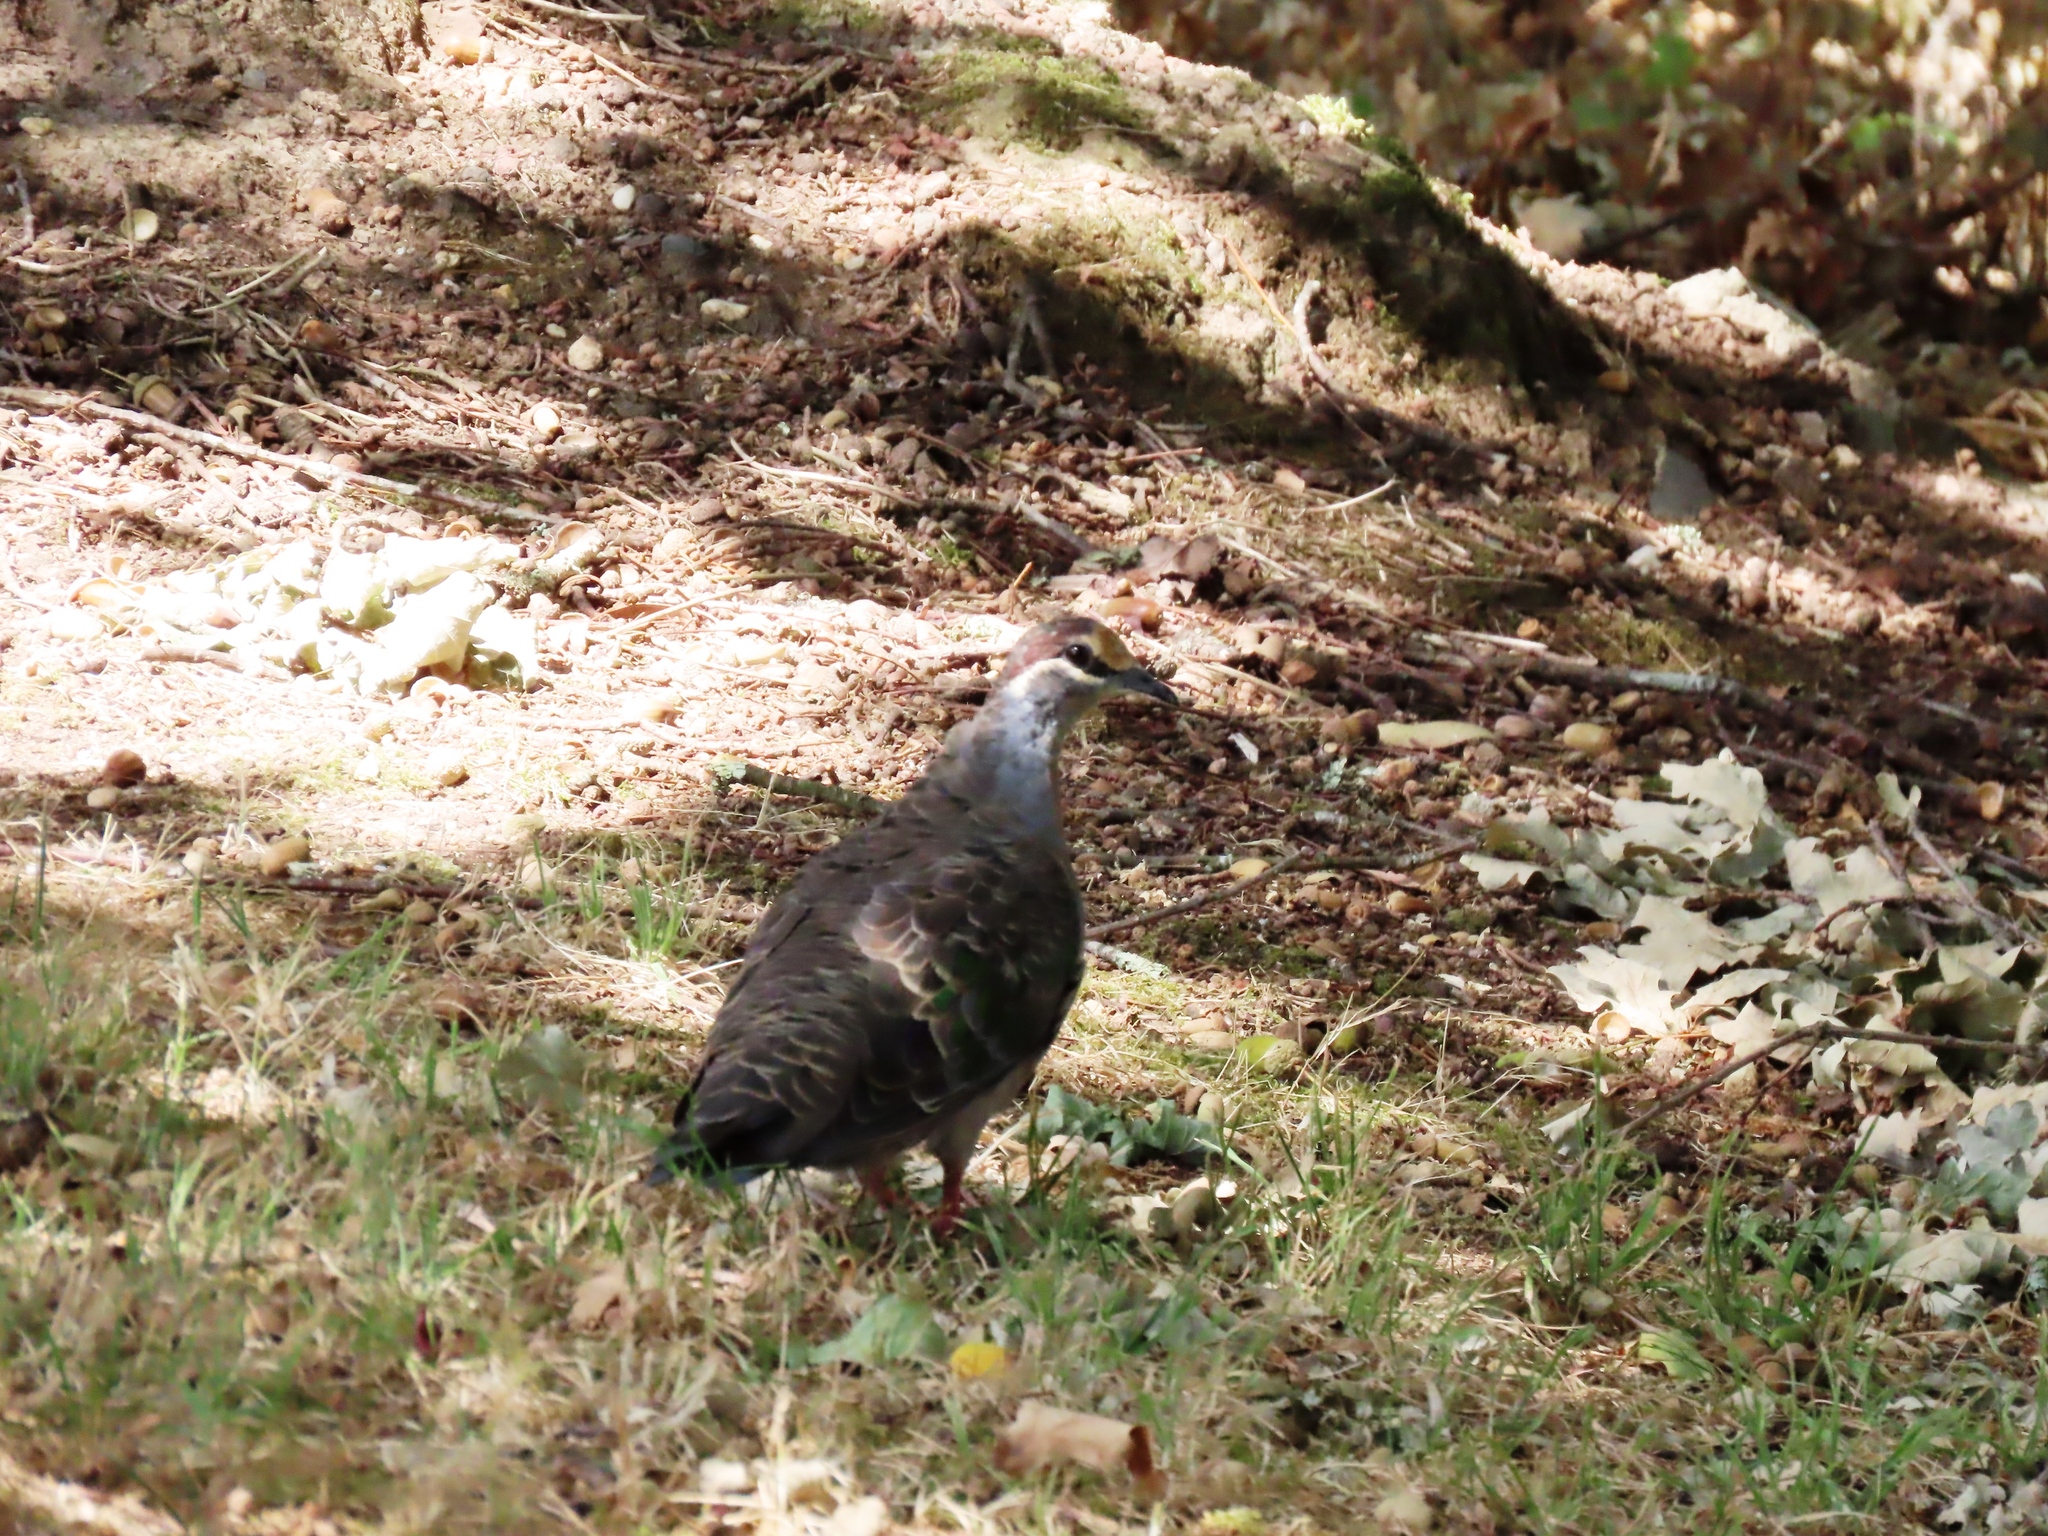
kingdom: Animalia
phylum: Chordata
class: Aves
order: Columbiformes
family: Columbidae
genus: Phaps
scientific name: Phaps chalcoptera
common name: Common bronzewing
